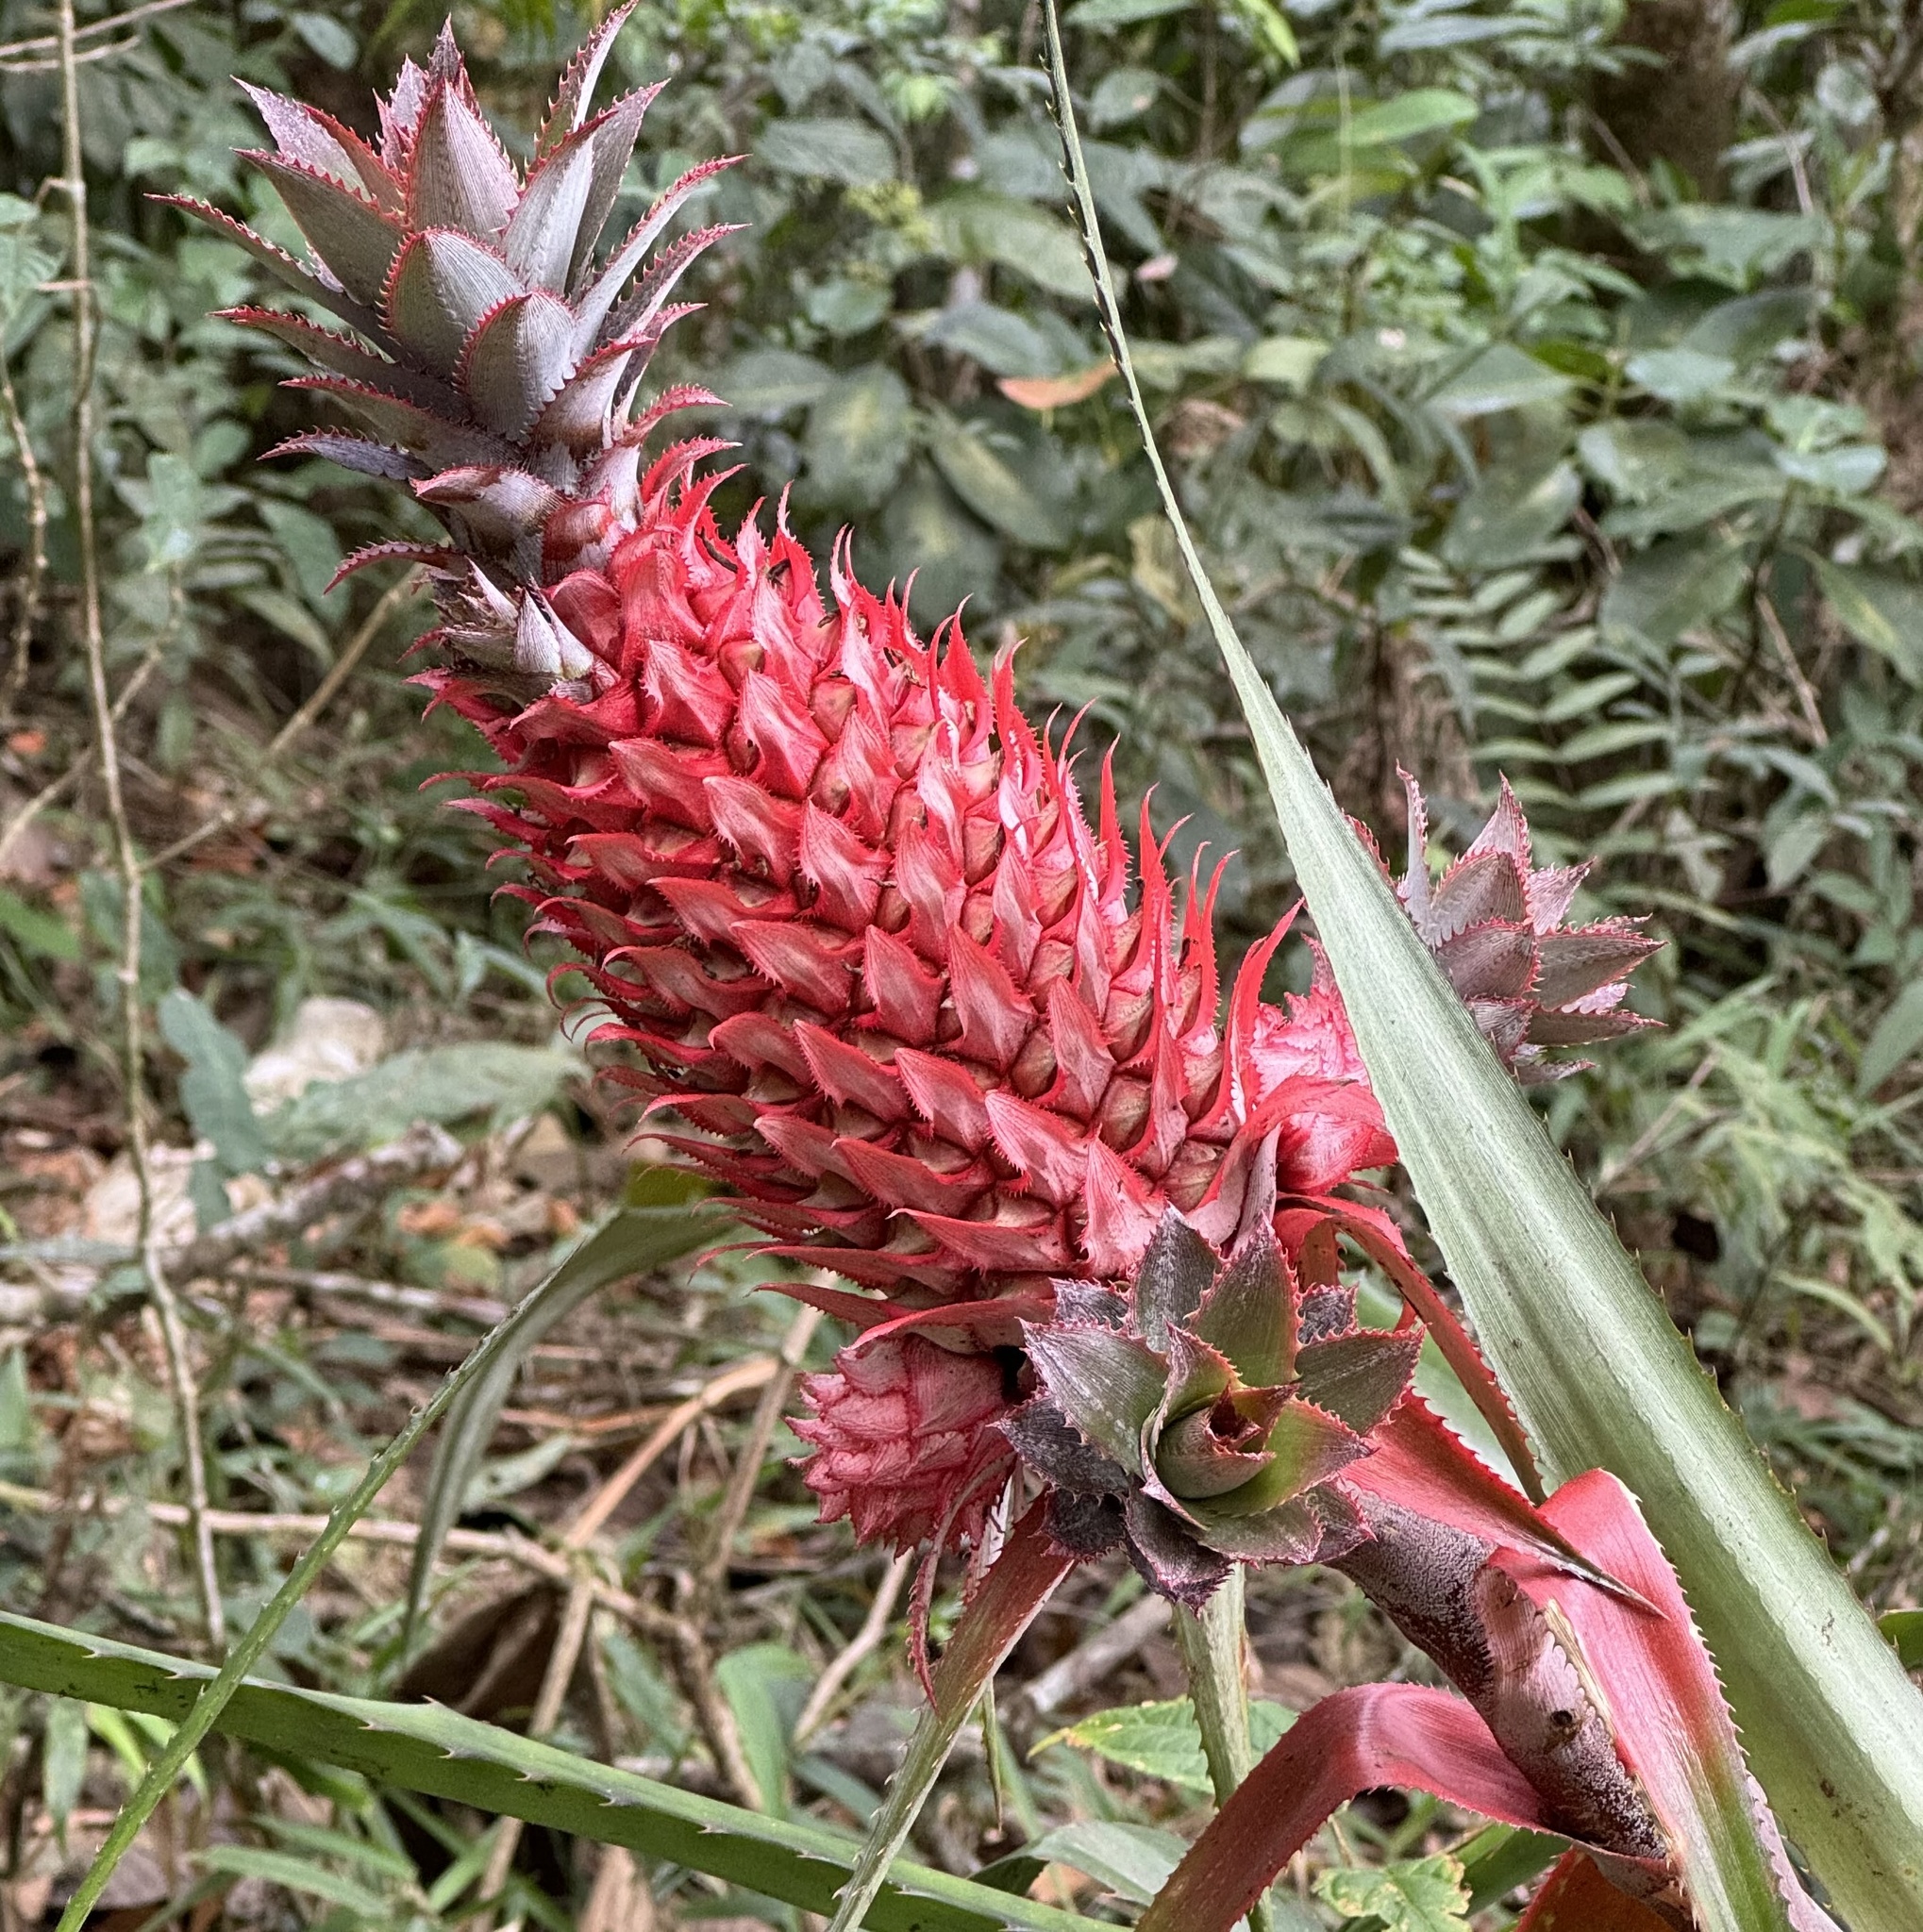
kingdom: Plantae
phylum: Tracheophyta
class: Liliopsida
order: Poales
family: Bromeliaceae
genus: Ananas
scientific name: Ananas comosus
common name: Pineapple
